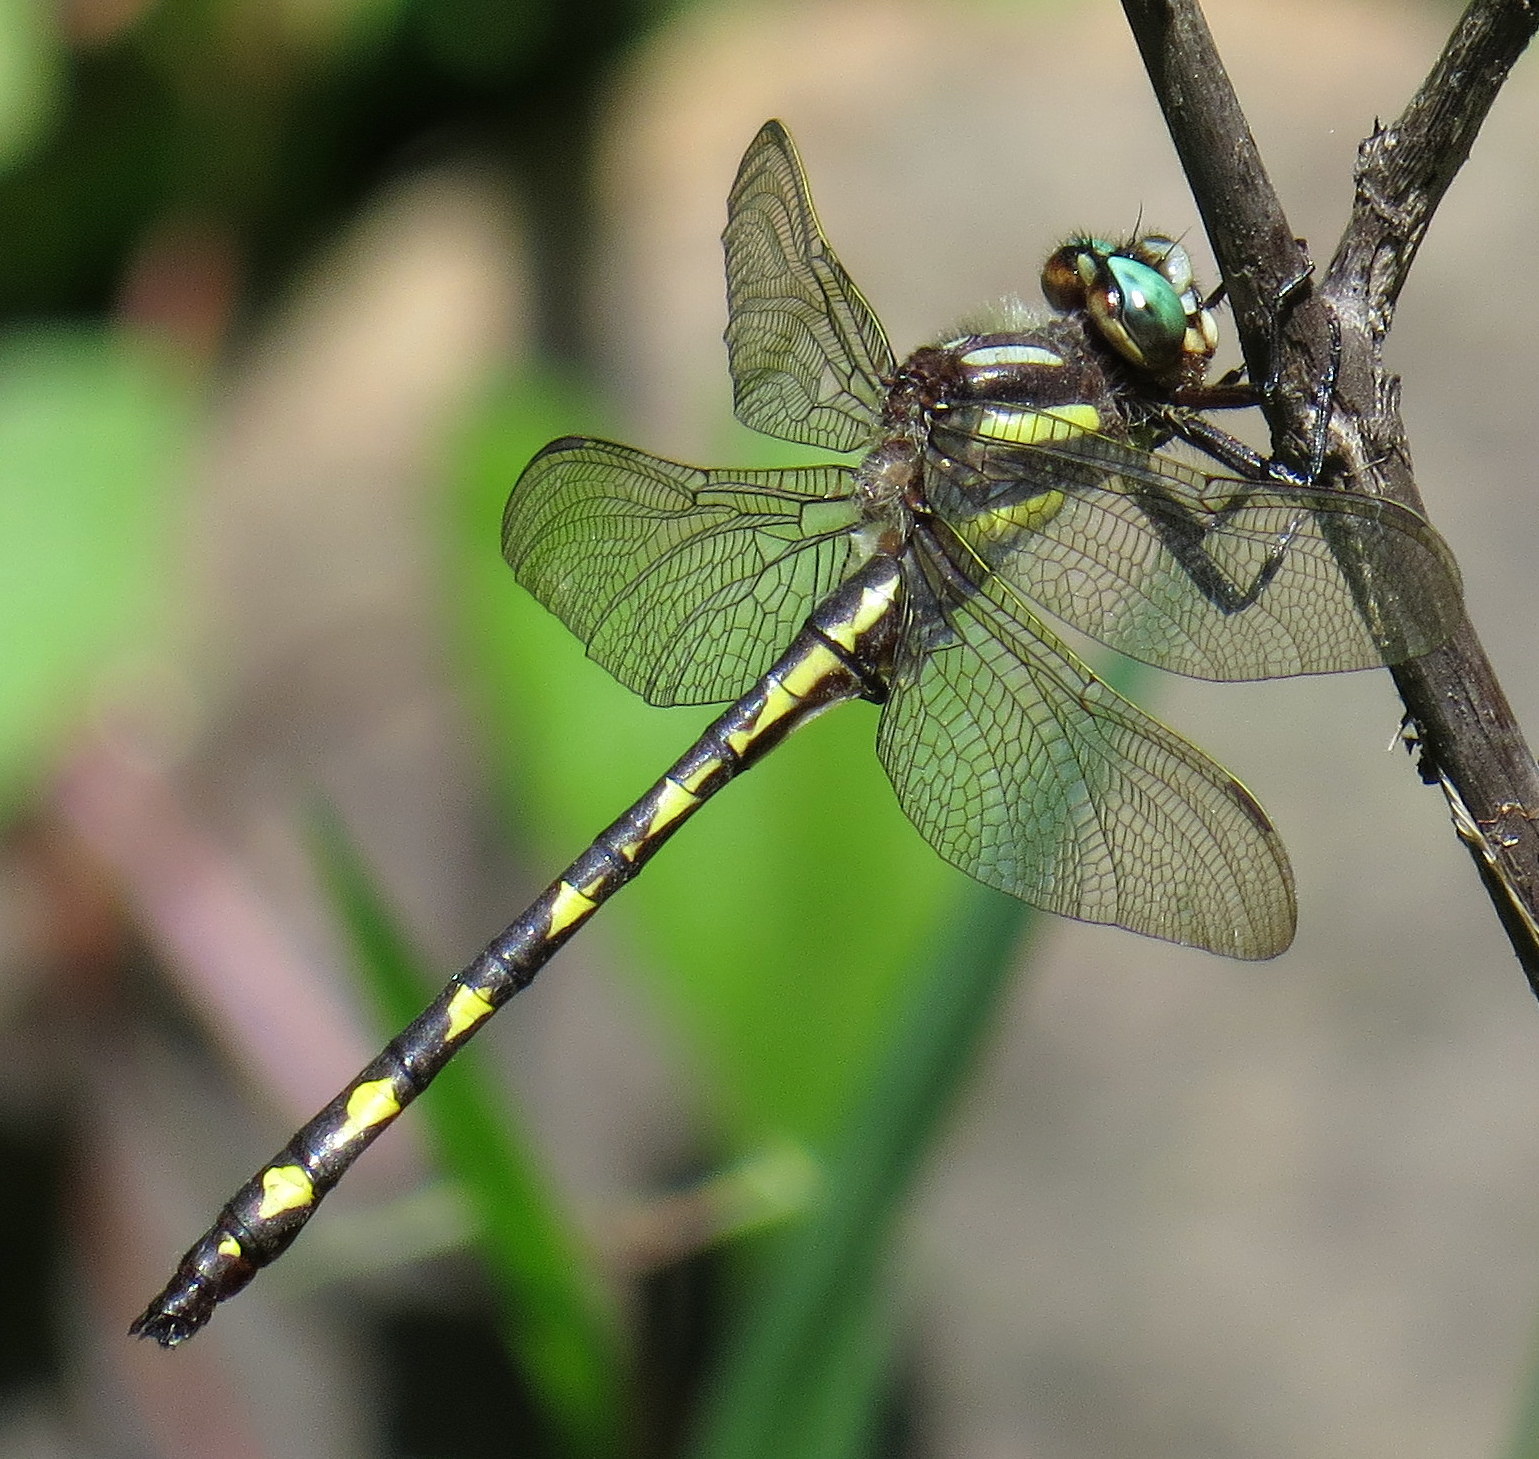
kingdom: Animalia
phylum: Arthropoda
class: Insecta
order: Odonata
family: Cordulegastridae
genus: Cordulegaster
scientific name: Cordulegaster diastatops
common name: Delta-spotted spiketail
